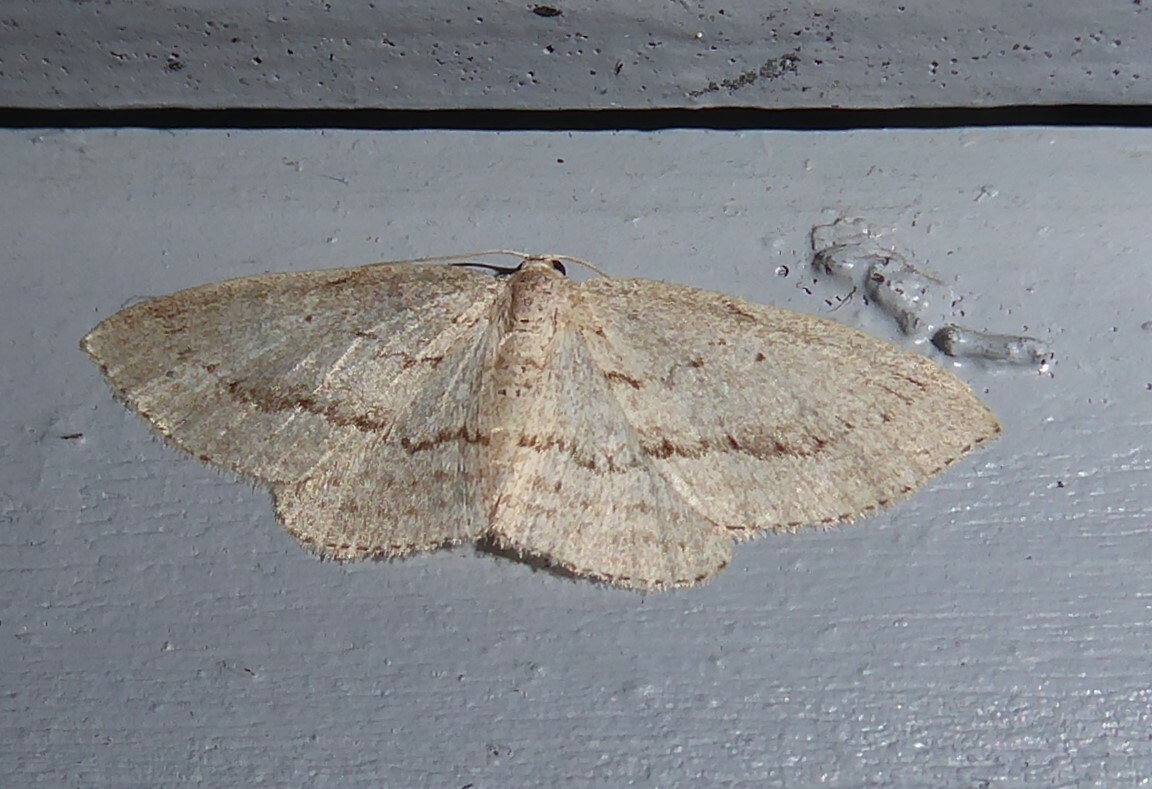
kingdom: Animalia
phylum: Arthropoda
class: Insecta
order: Lepidoptera
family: Geometridae
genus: Poecilasthena
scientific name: Poecilasthena schistaria
